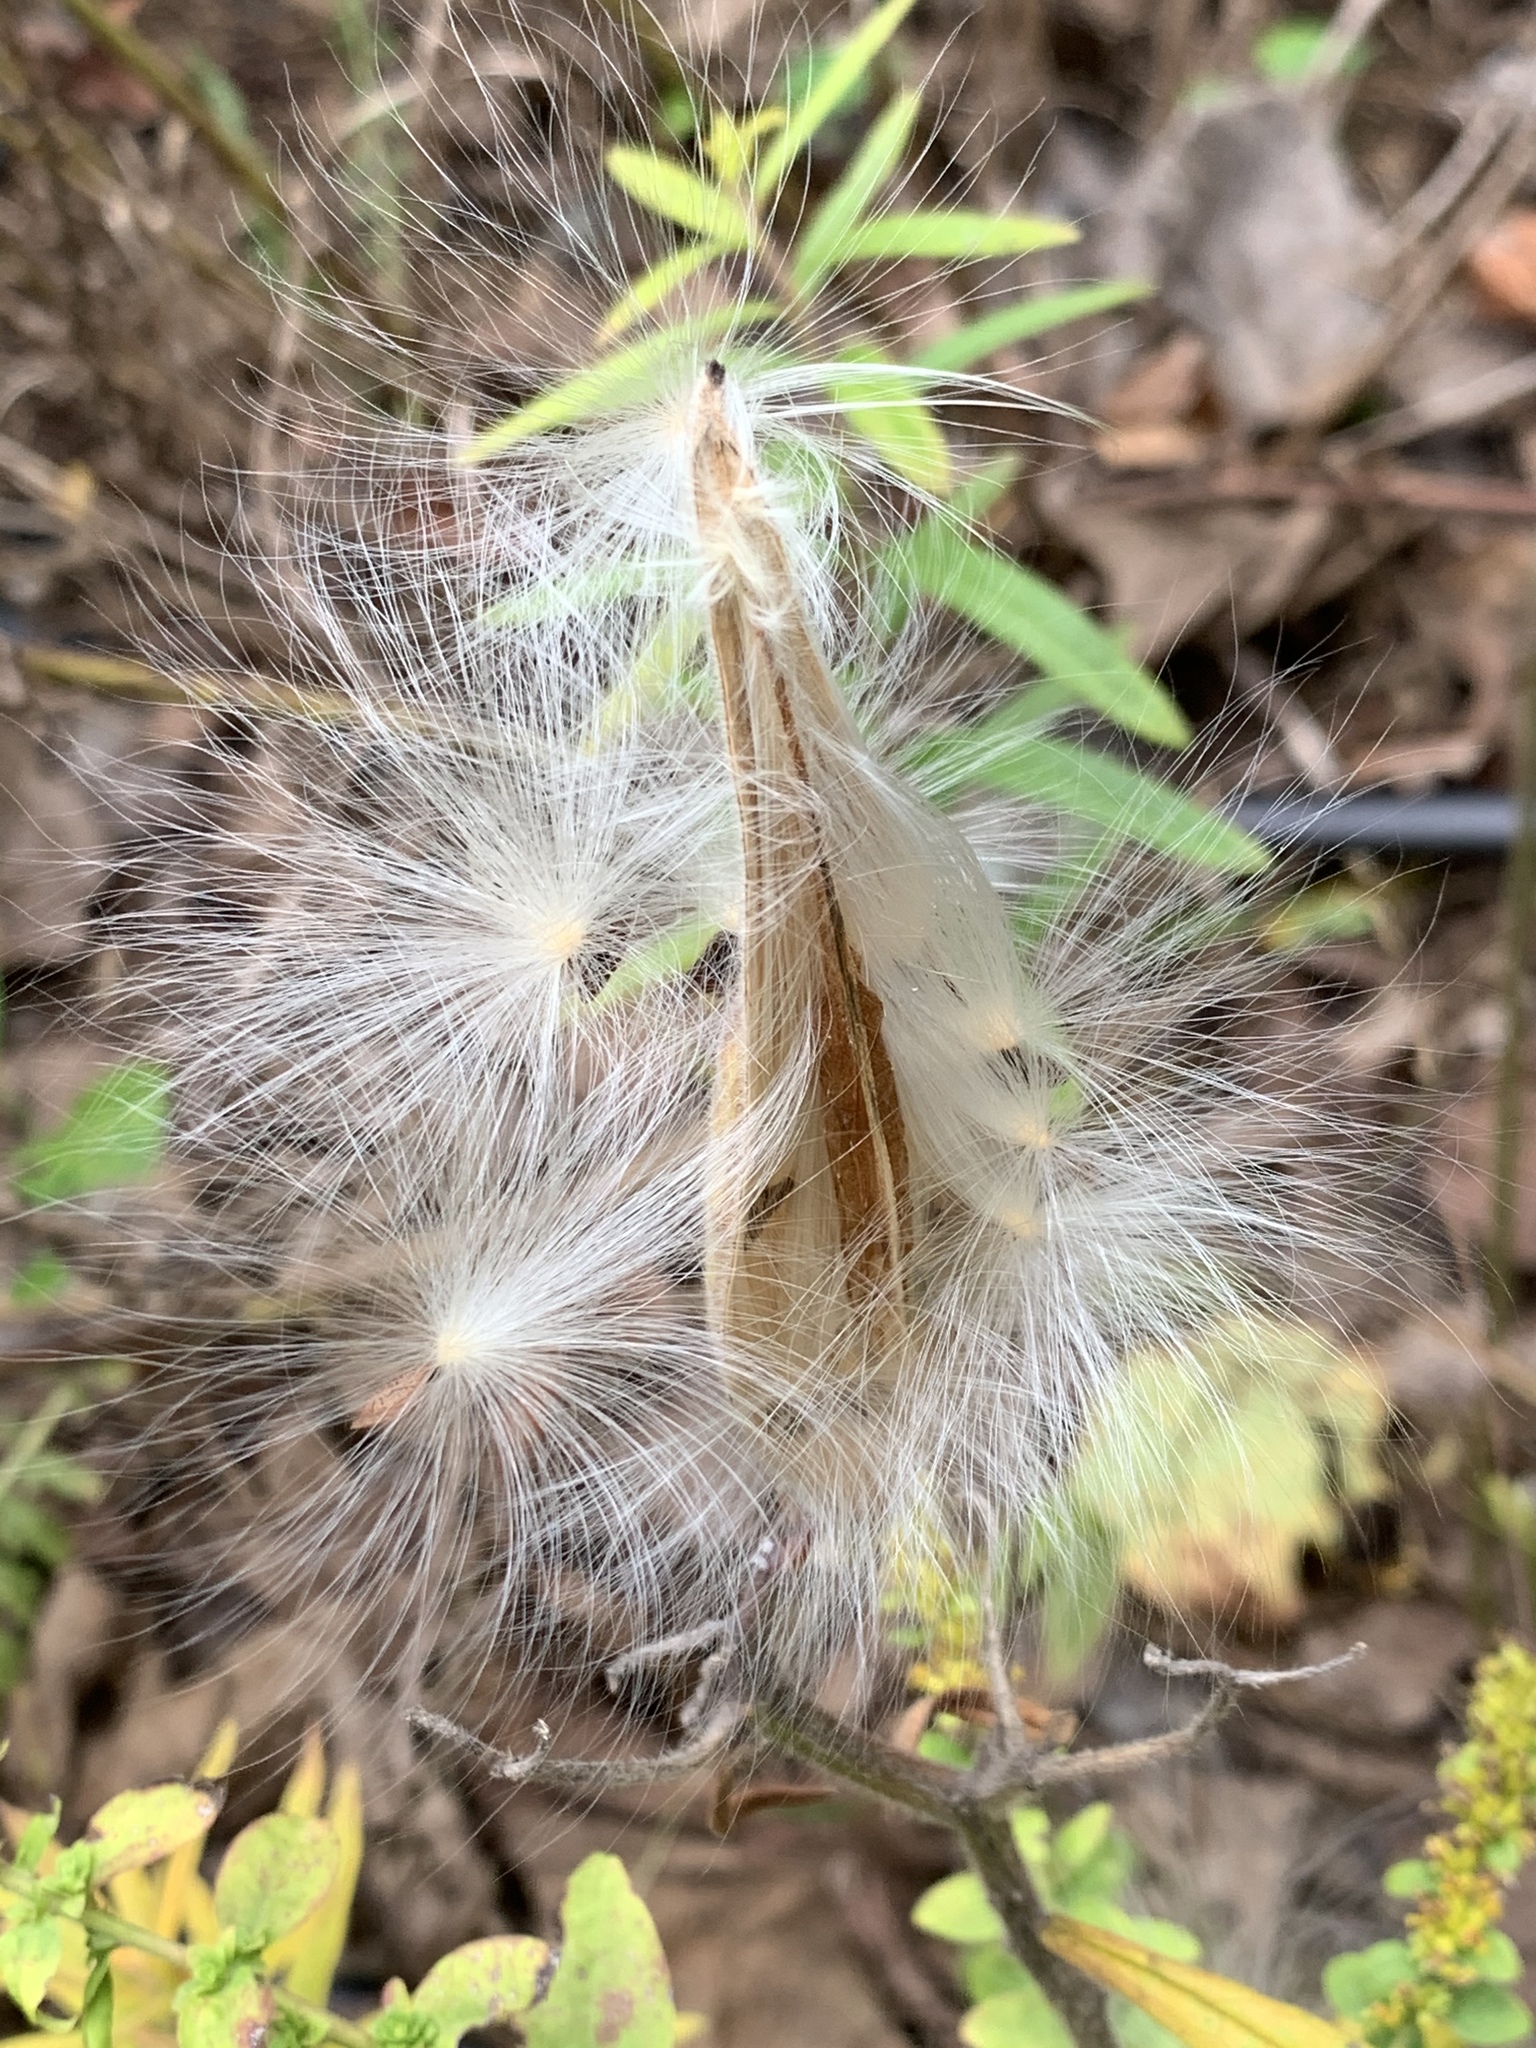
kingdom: Plantae
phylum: Tracheophyta
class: Magnoliopsida
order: Gentianales
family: Apocynaceae
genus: Asclepias
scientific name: Asclepias tuberosa
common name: Butterfly milkweed
